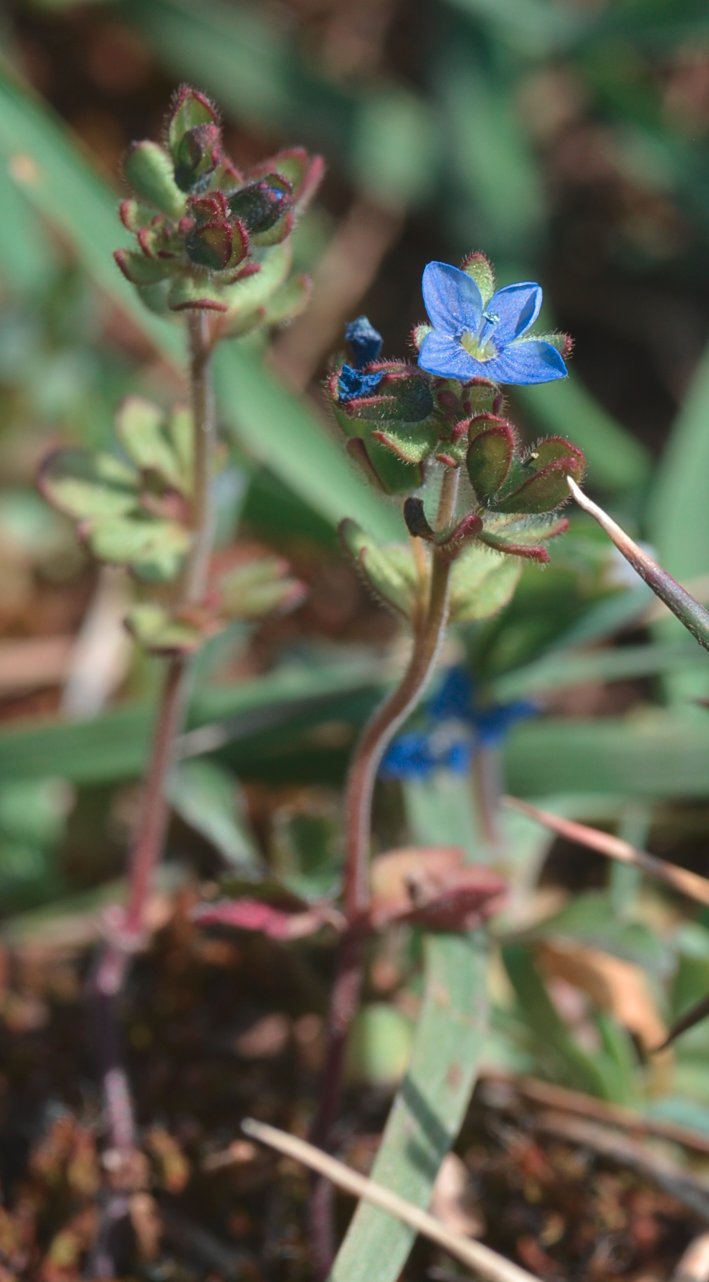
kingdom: Plantae
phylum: Tracheophyta
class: Magnoliopsida
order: Lamiales
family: Plantaginaceae
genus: Veronica
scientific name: Veronica triphyllos
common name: Fingered speedwell
